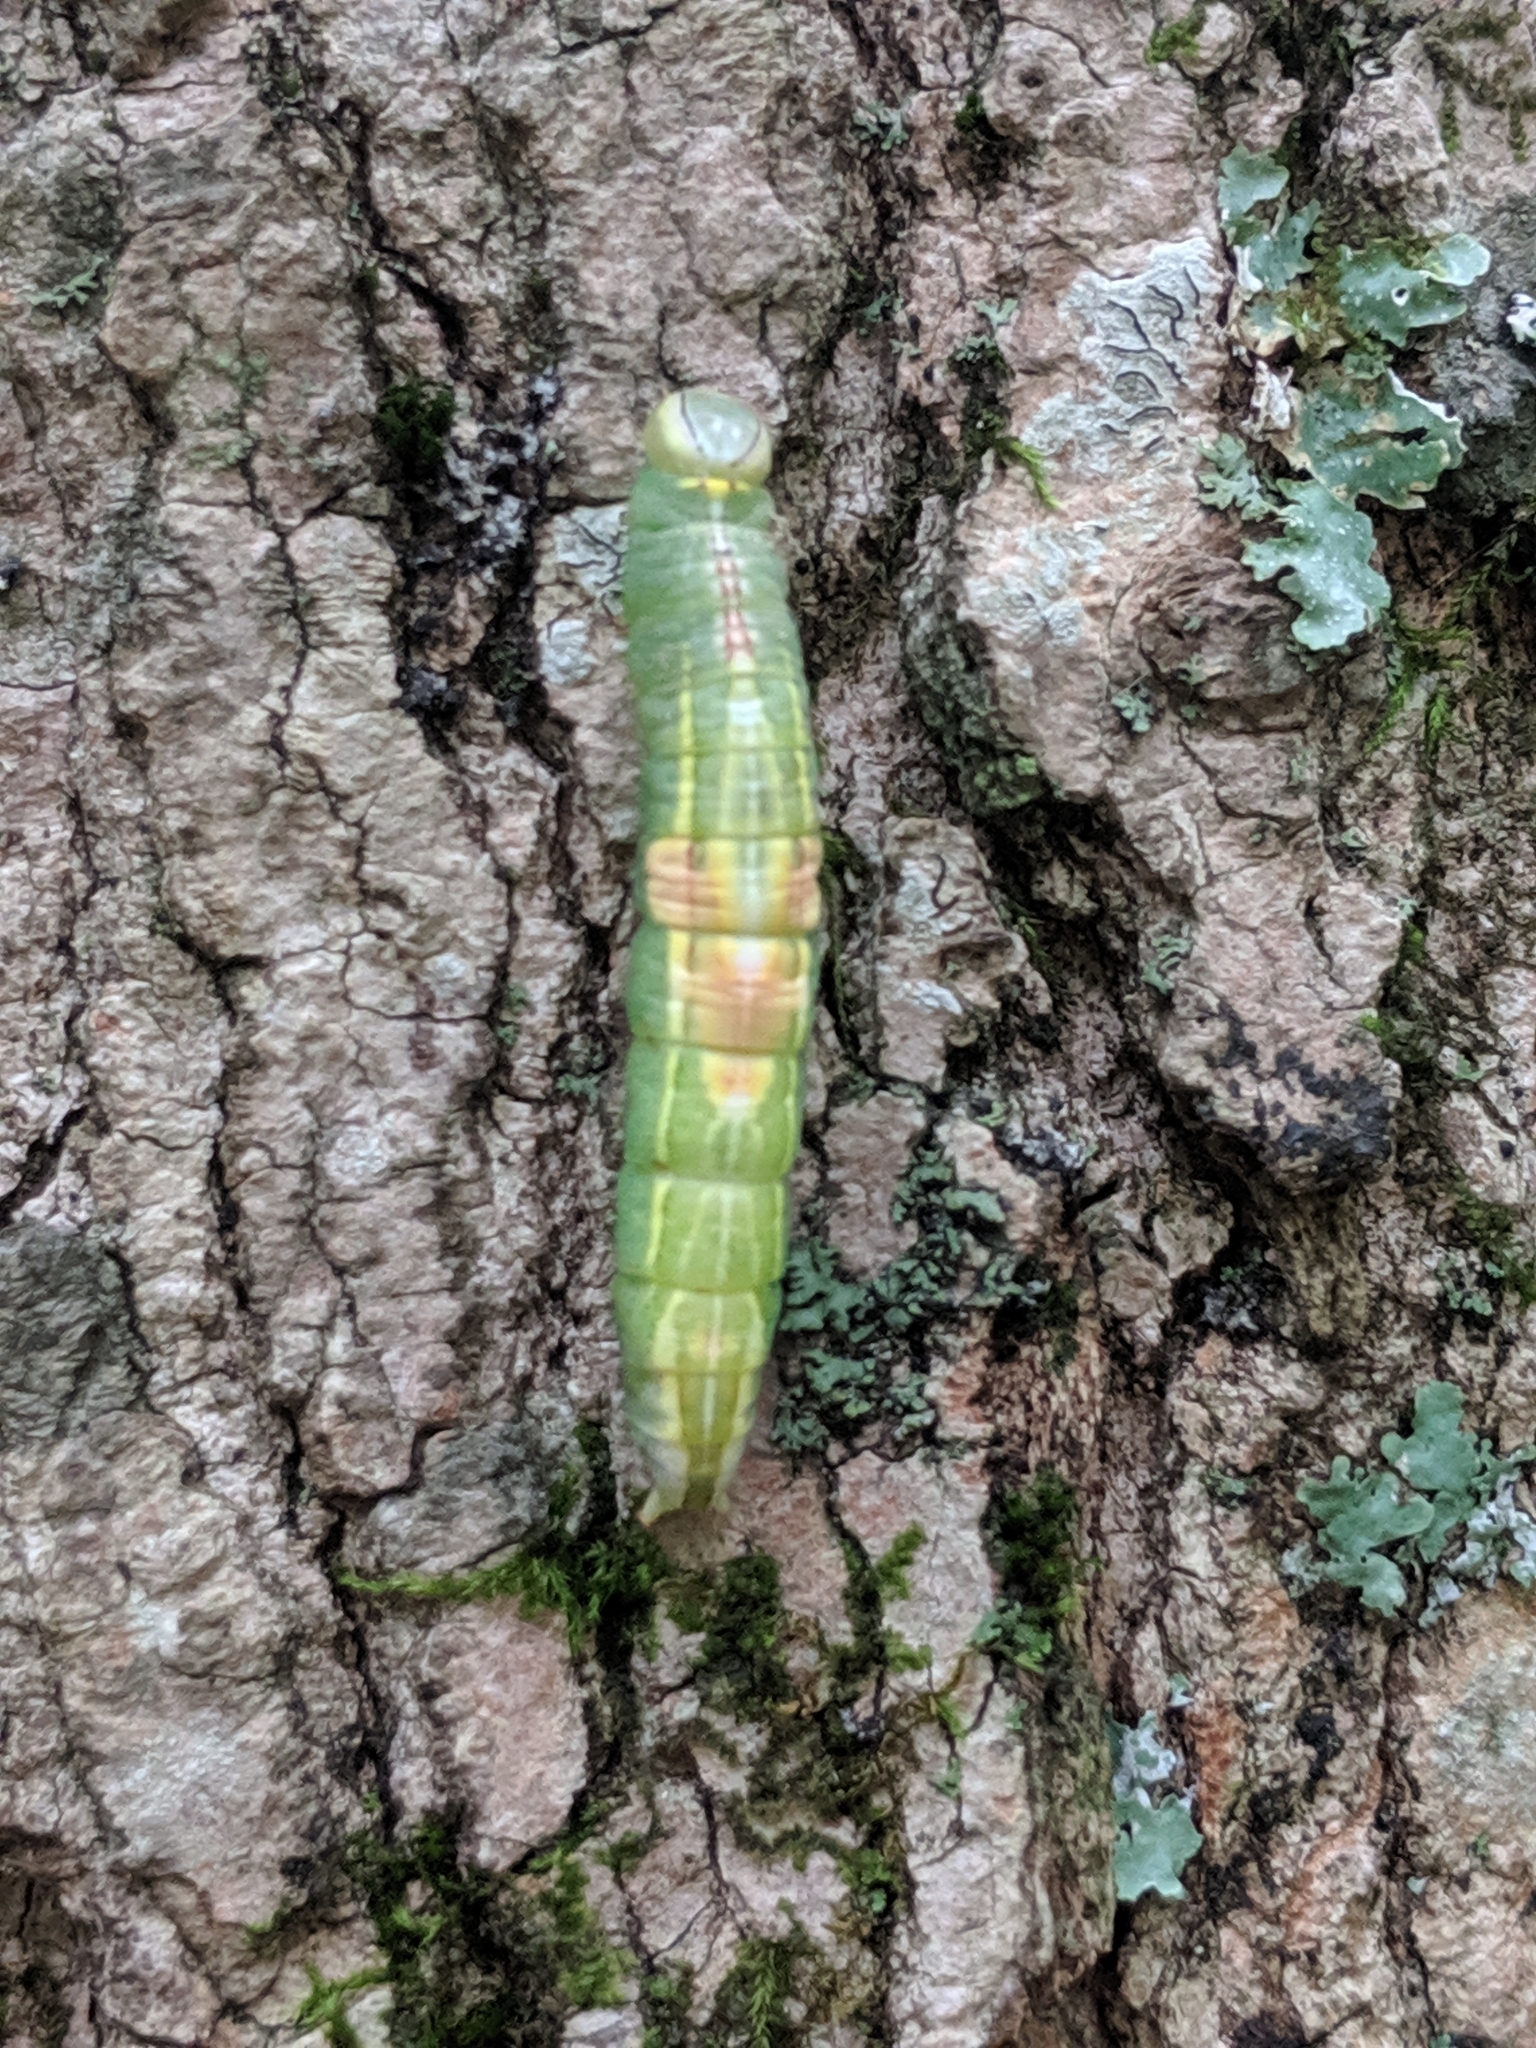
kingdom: Animalia
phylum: Arthropoda
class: Insecta
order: Lepidoptera
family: Notodontidae
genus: Disphragis
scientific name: Disphragis Cecrita guttivitta
